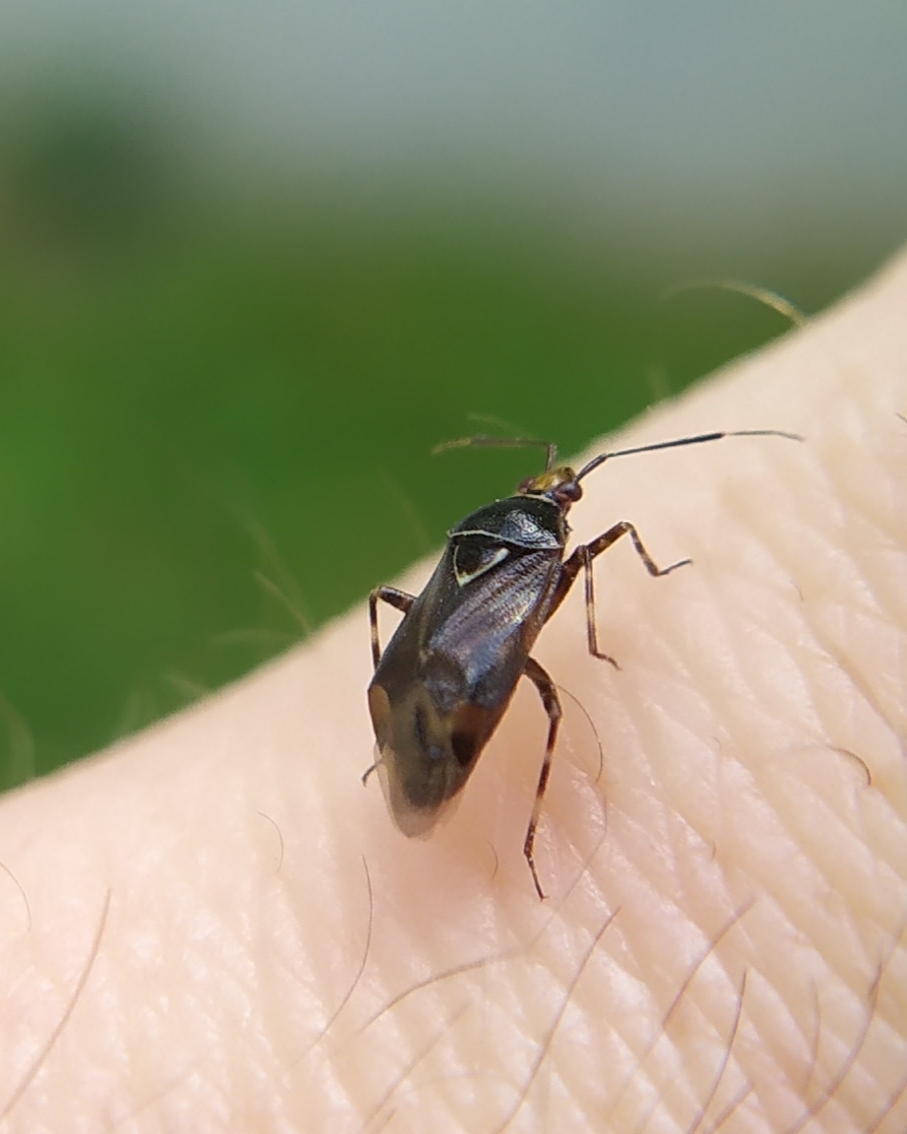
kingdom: Animalia
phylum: Arthropoda
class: Insecta
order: Hemiptera
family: Miridae
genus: Deraeocoris
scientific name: Deraeocoris flavilinea
